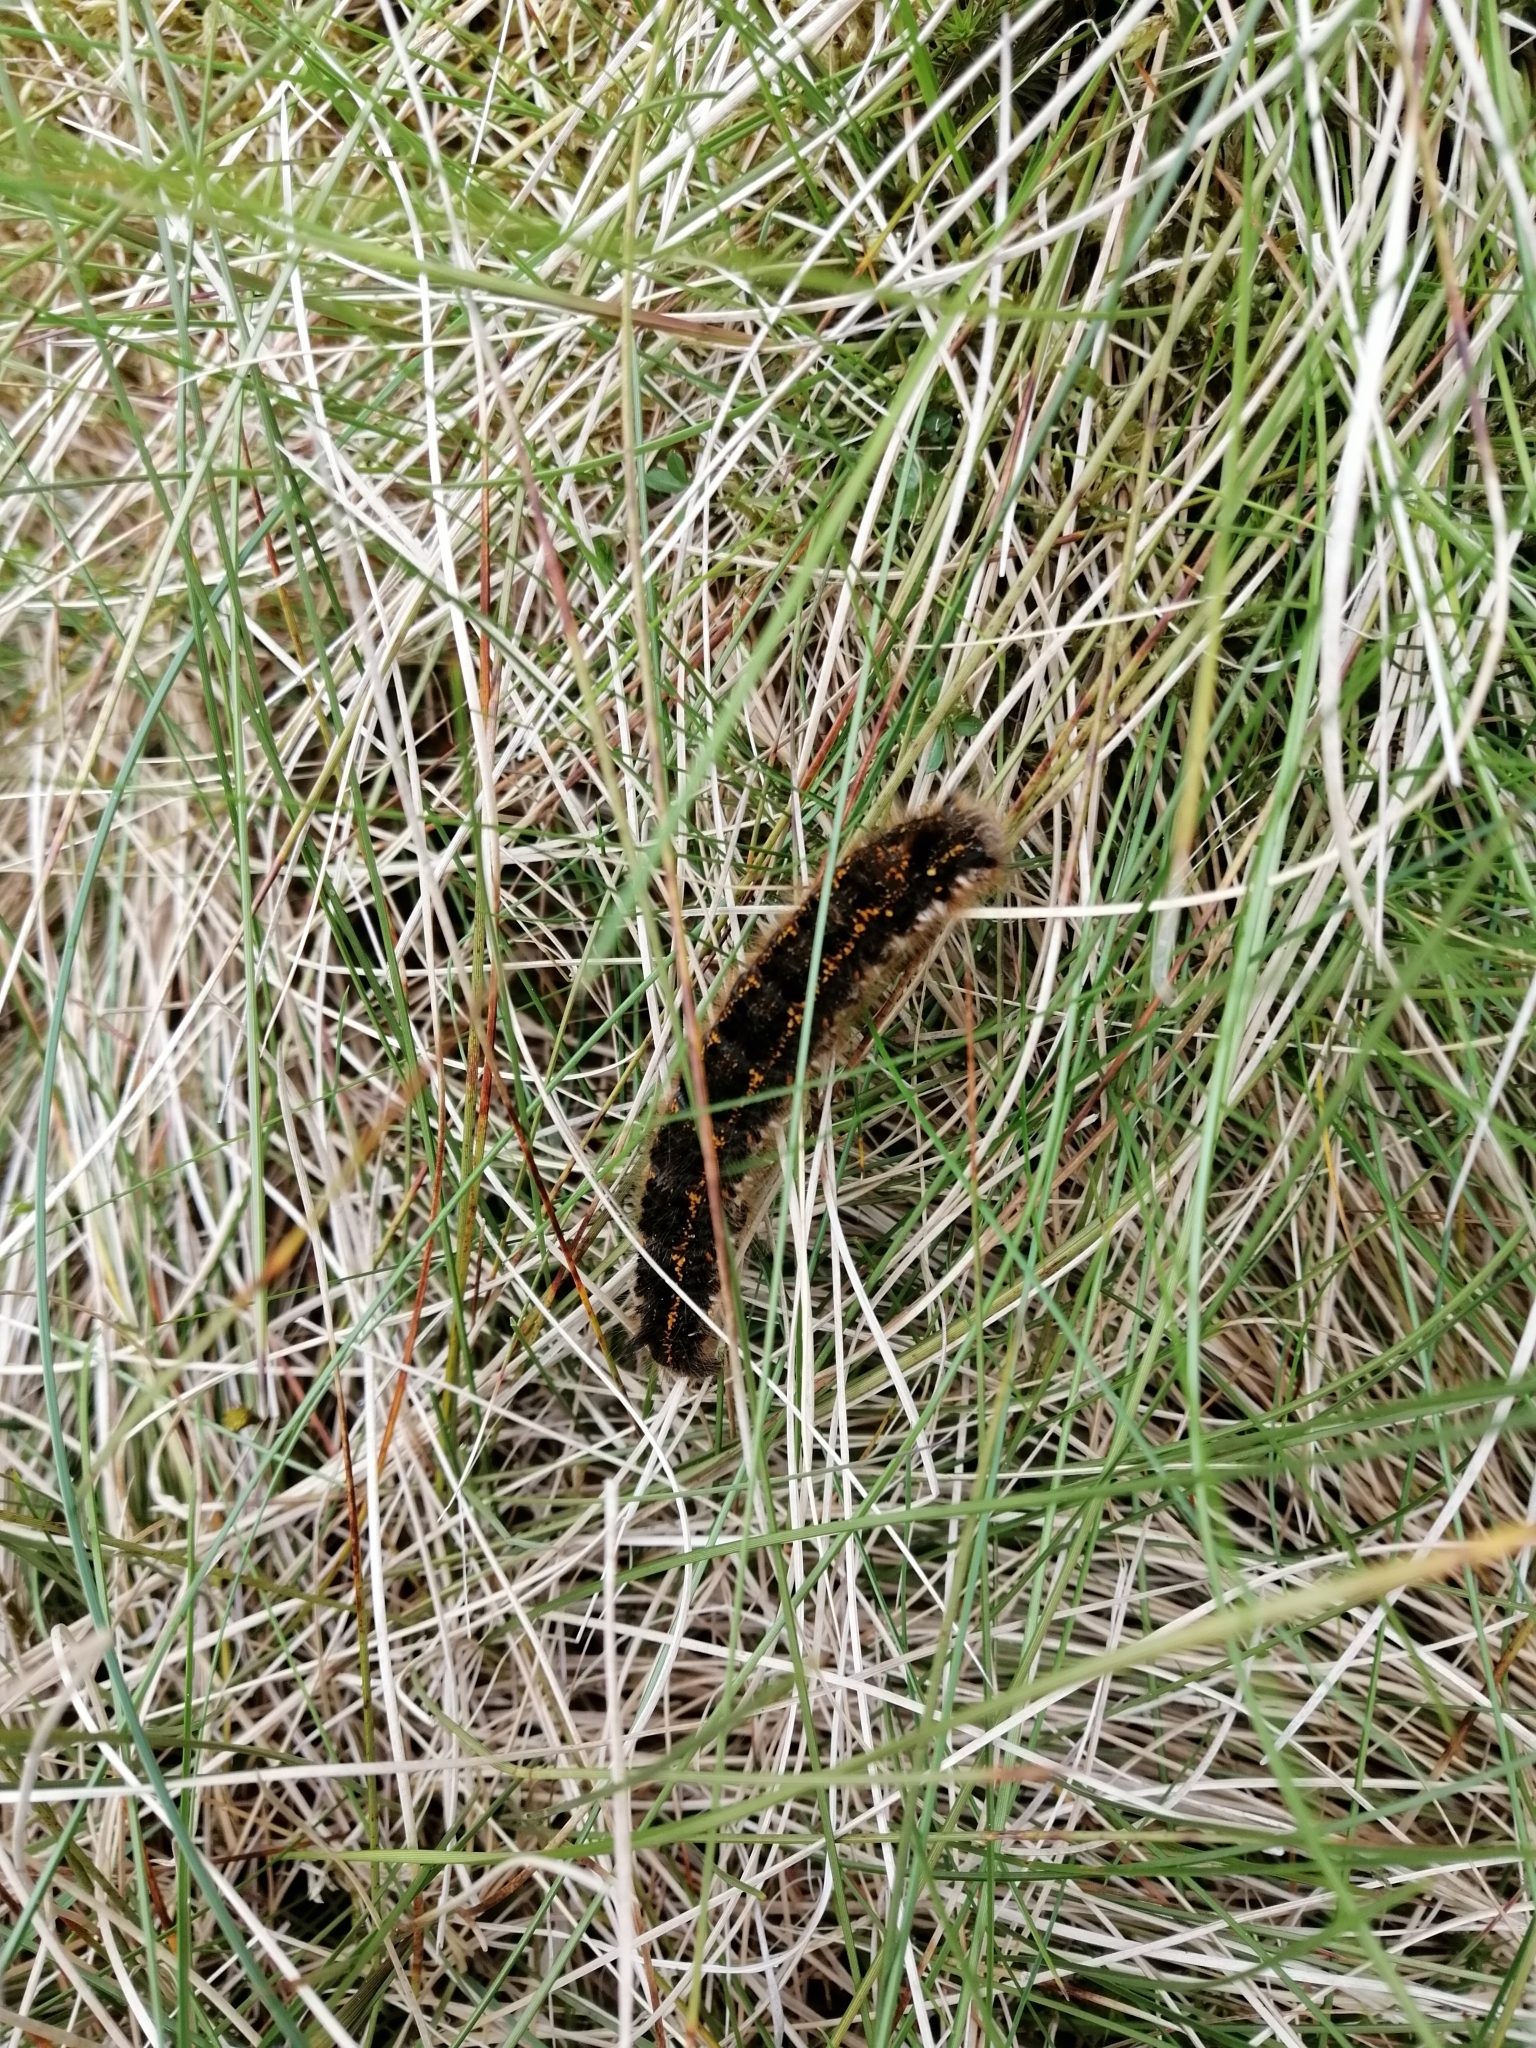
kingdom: Animalia
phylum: Arthropoda
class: Insecta
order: Lepidoptera
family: Lasiocampidae
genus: Euthrix
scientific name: Euthrix potatoria
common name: Drinker
